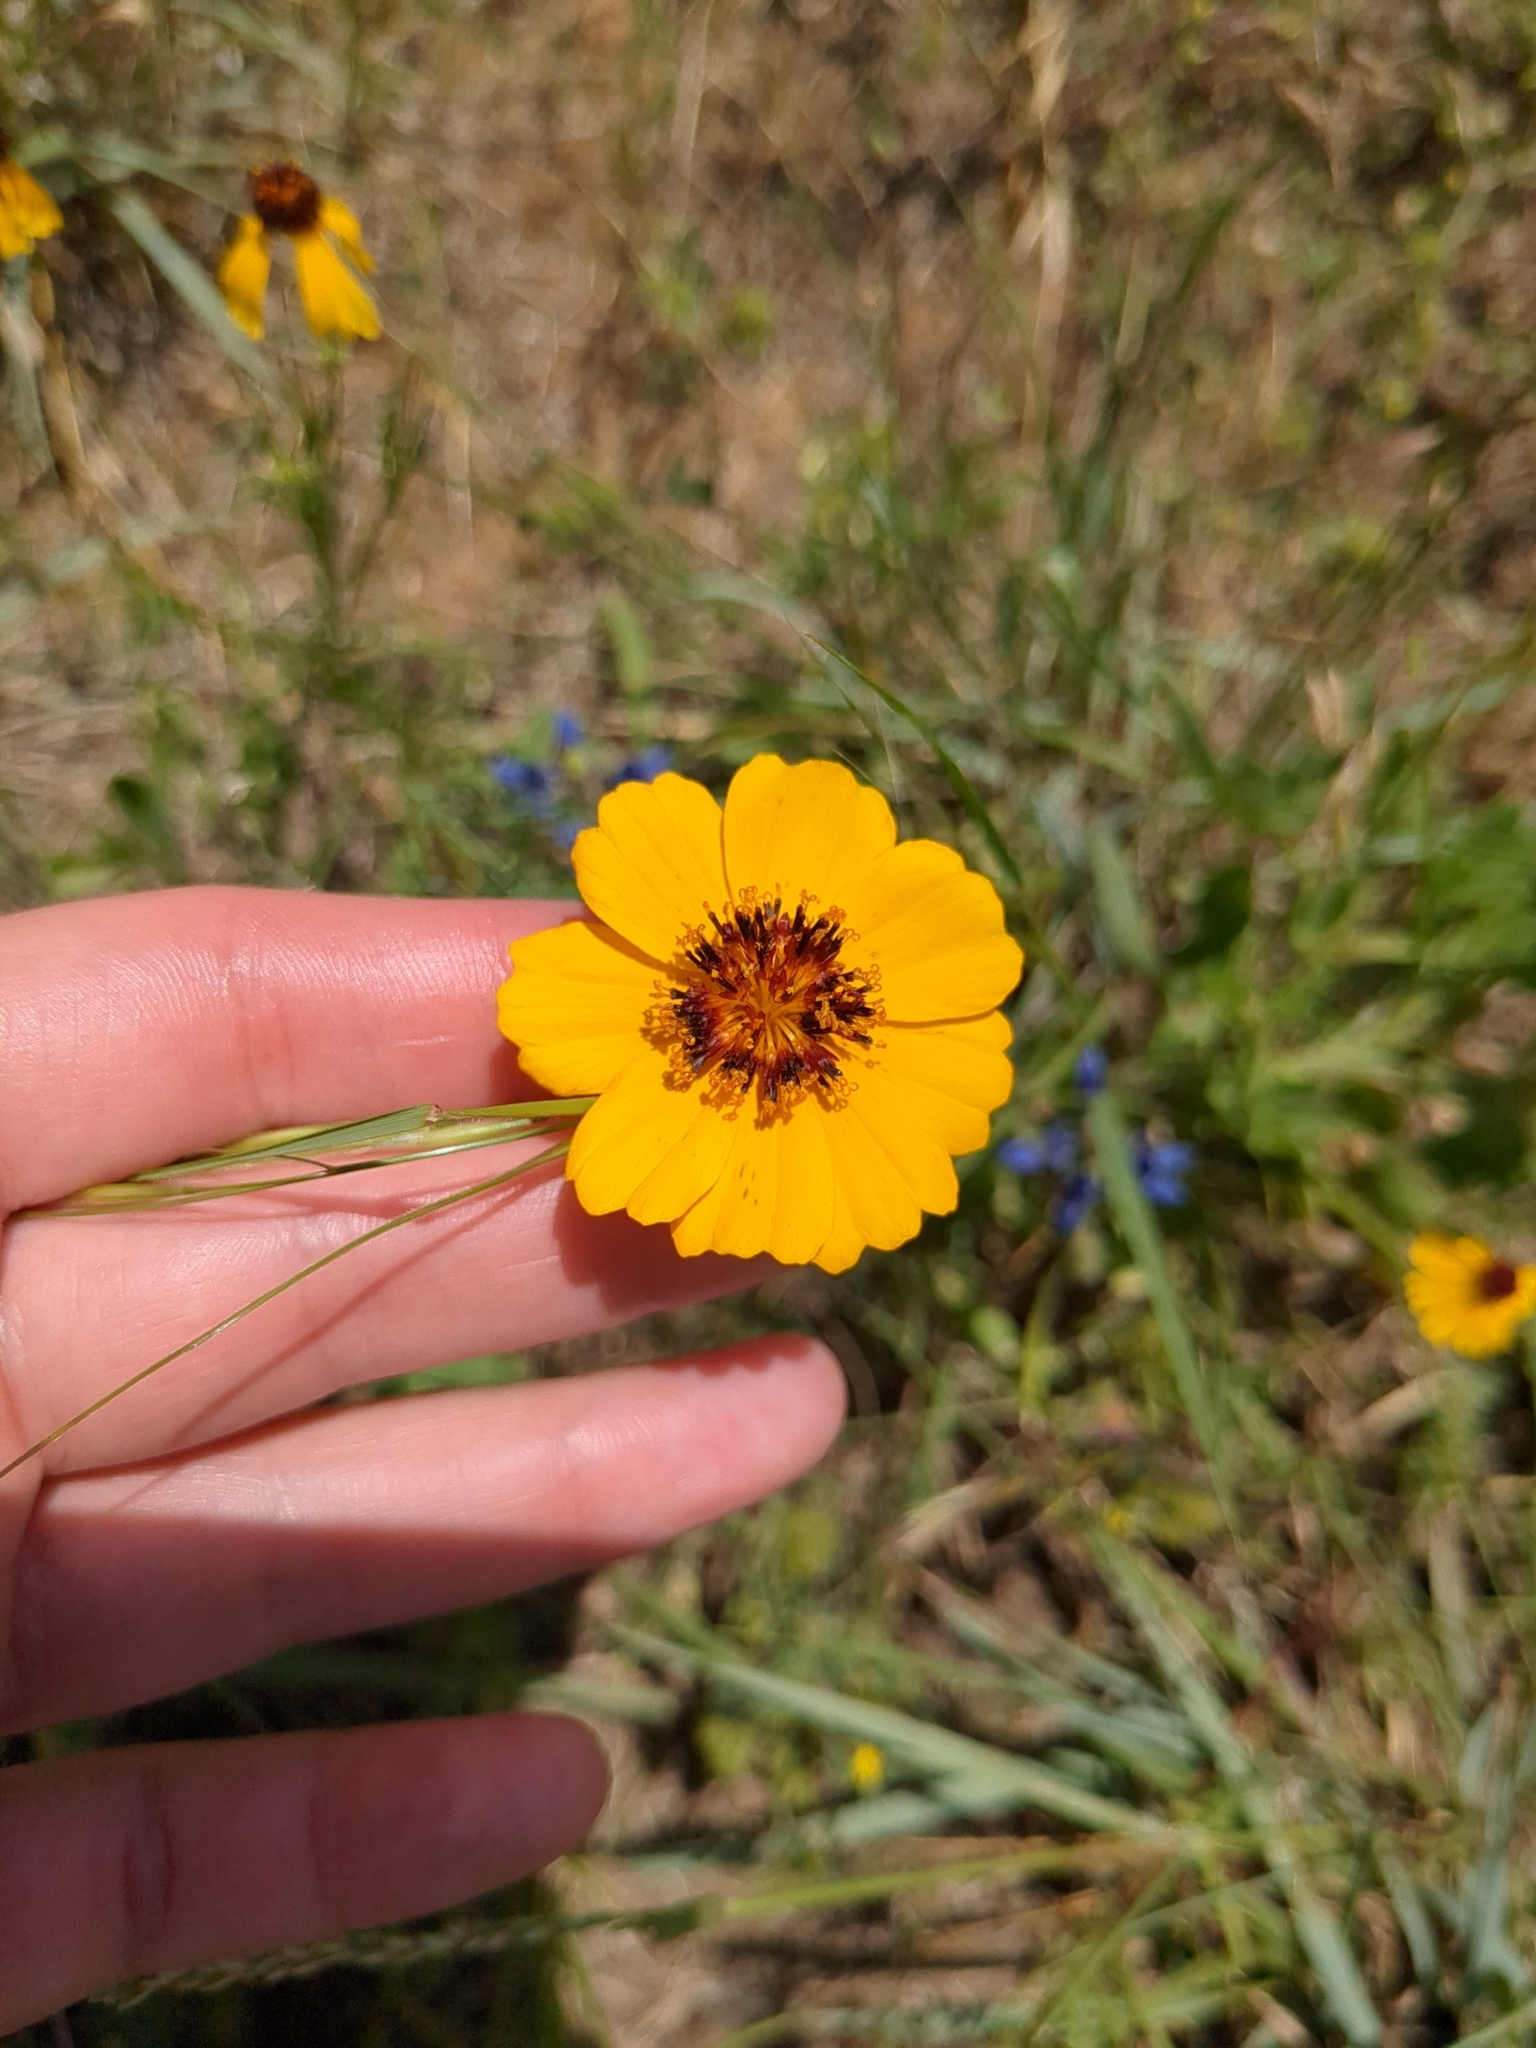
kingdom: Plantae
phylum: Tracheophyta
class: Magnoliopsida
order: Asterales
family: Asteraceae
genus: Thelesperma
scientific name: Thelesperma filifolium
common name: Stiff greenthread
